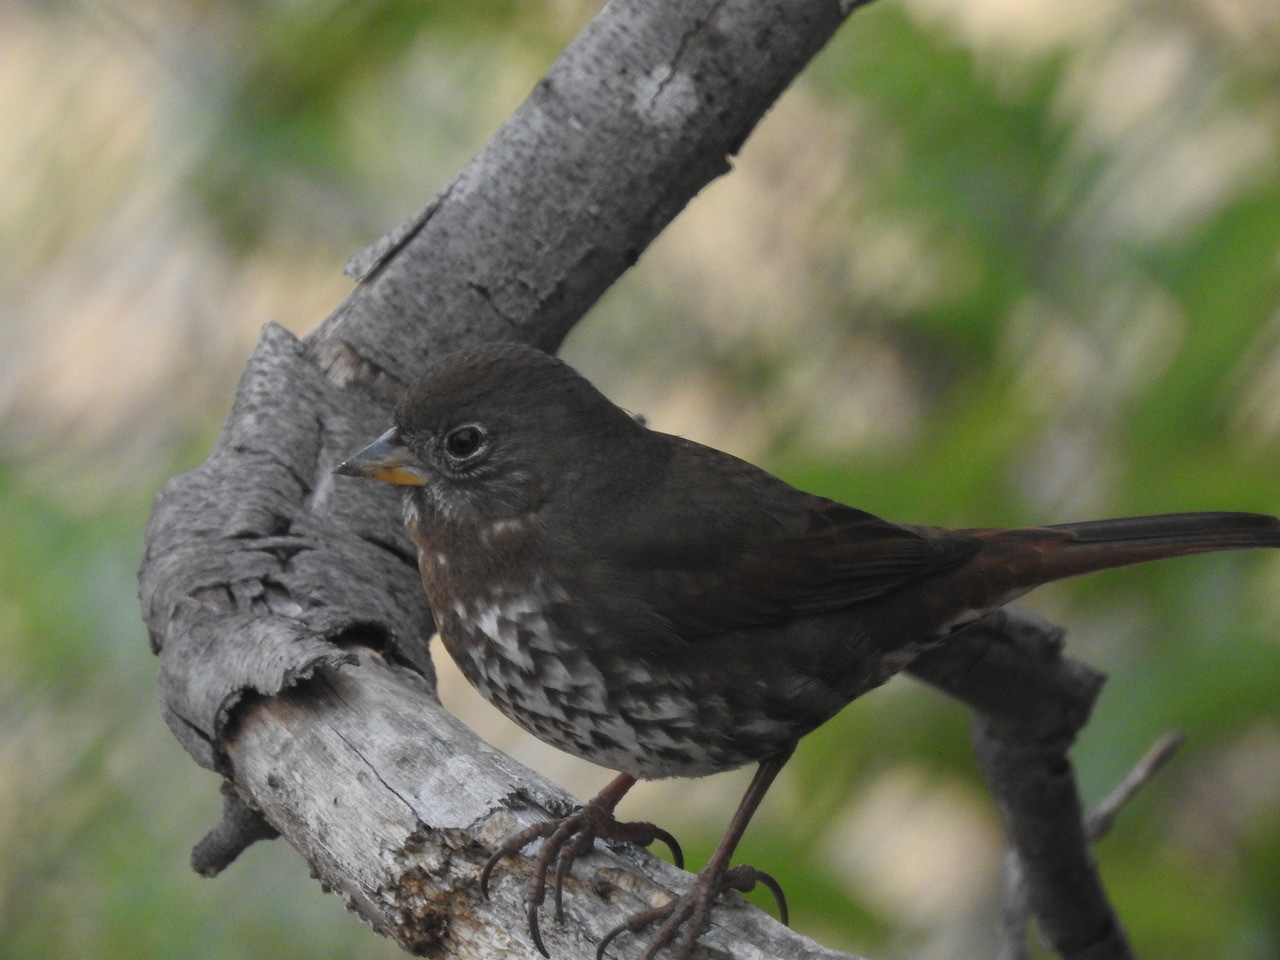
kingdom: Animalia
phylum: Chordata
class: Aves
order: Passeriformes
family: Passerellidae
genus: Passerella
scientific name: Passerella iliaca
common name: Fox sparrow
